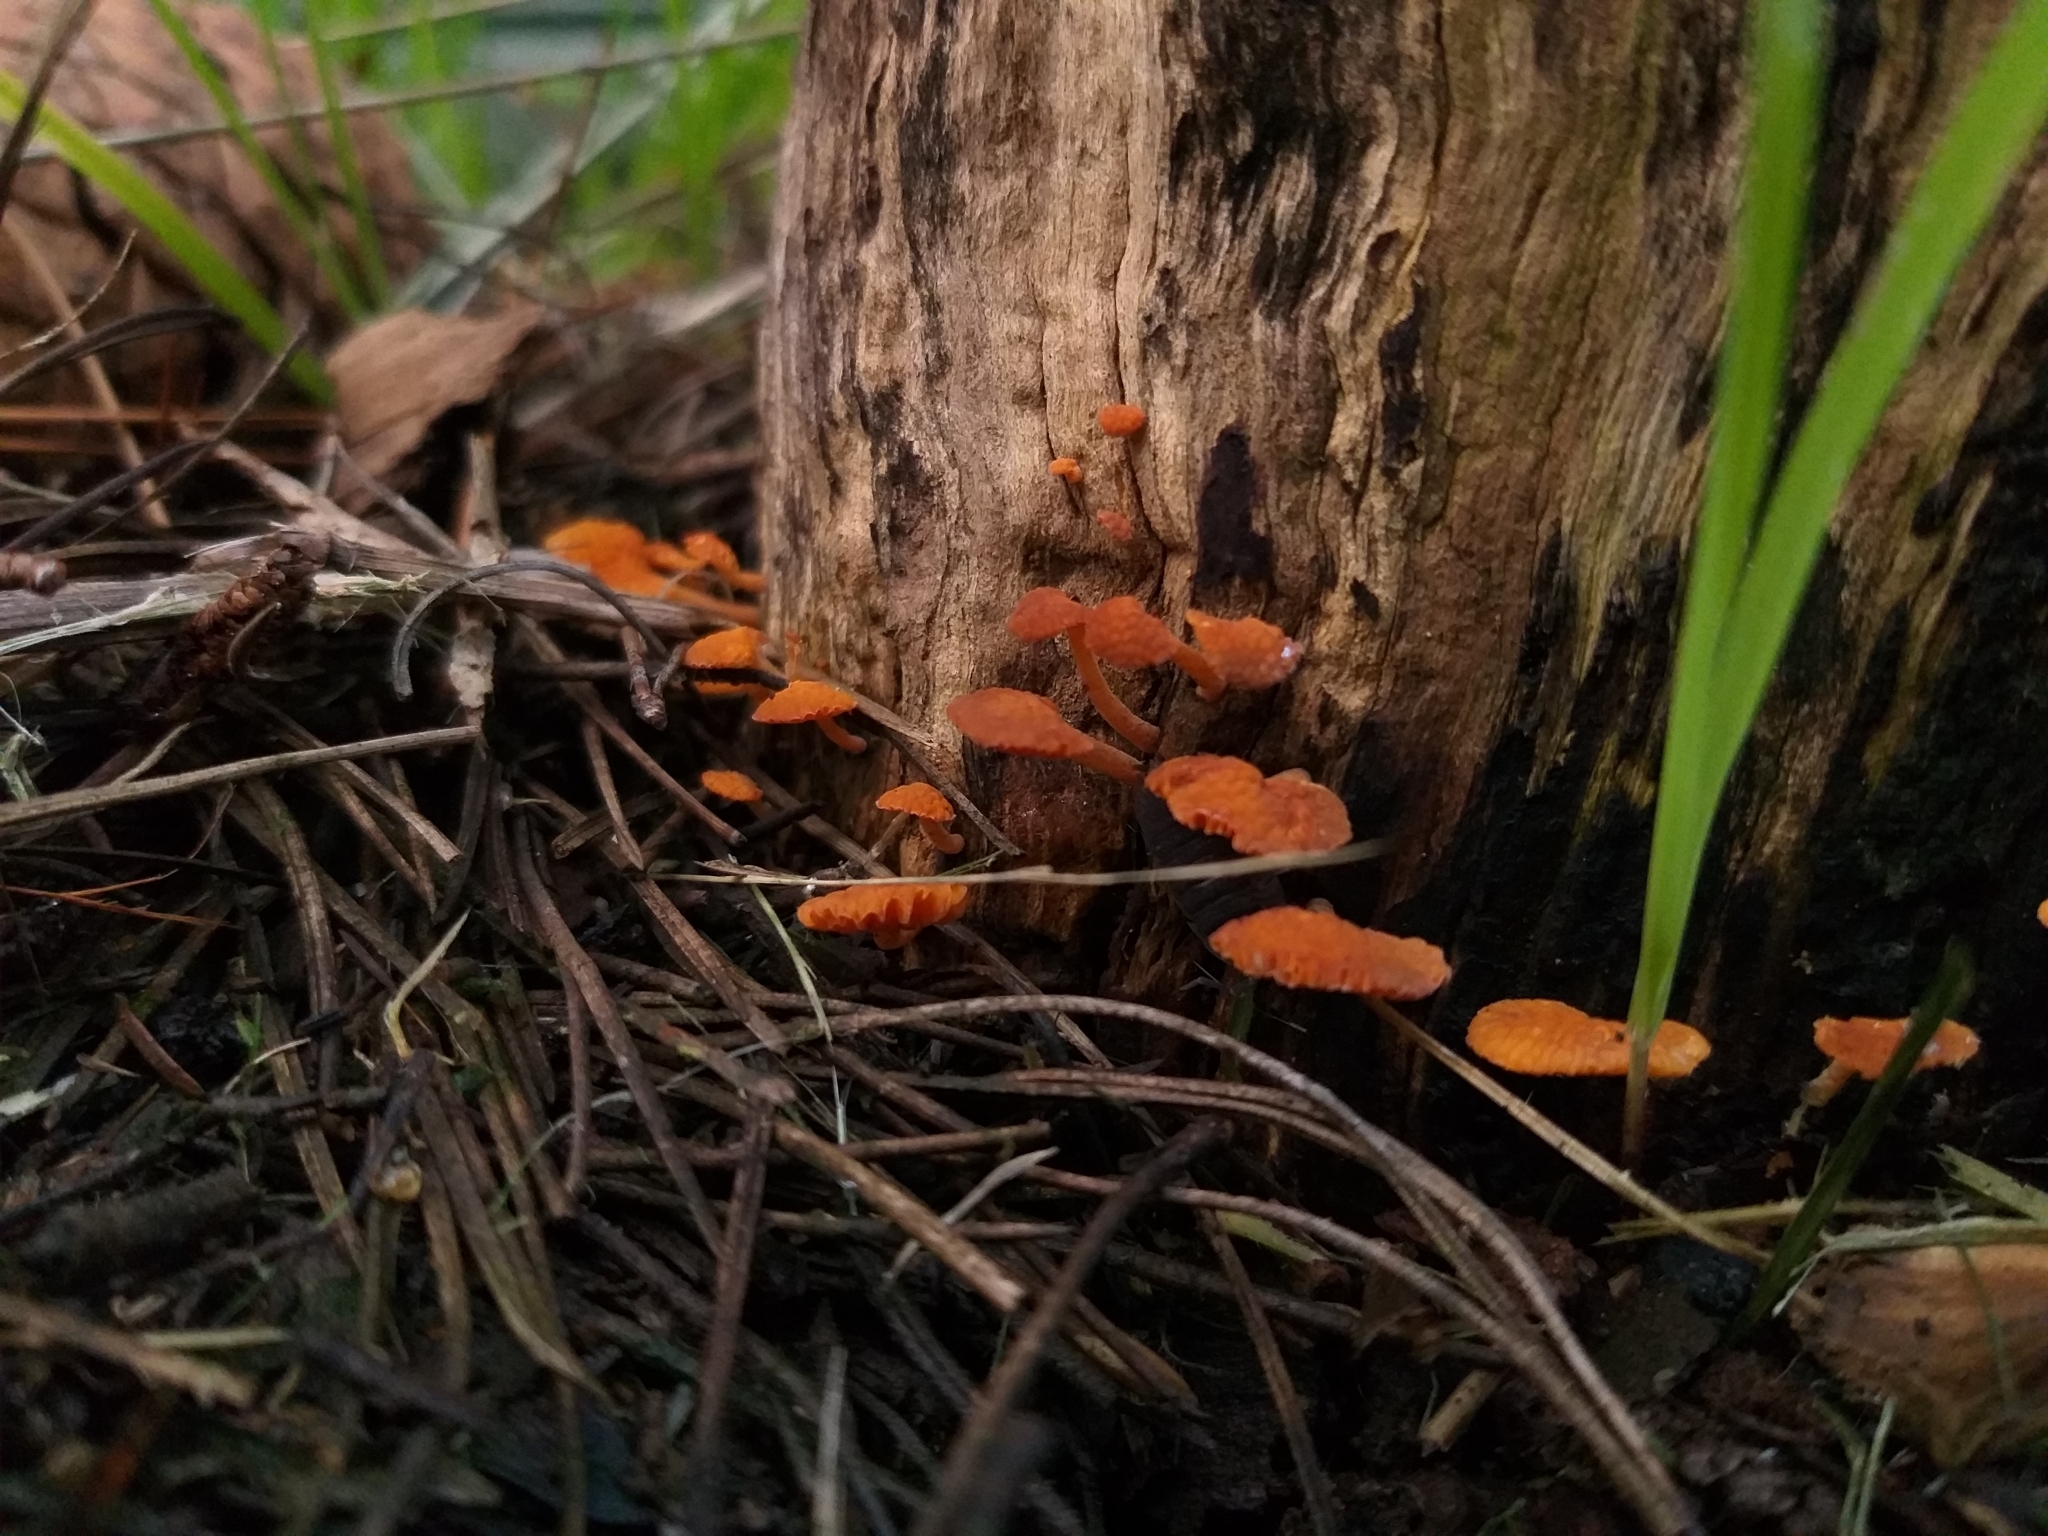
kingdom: Fungi
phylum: Basidiomycota
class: Agaricomycetes
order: Agaricales
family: Mycenaceae
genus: Favolaschia
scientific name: Favolaschia claudopus
